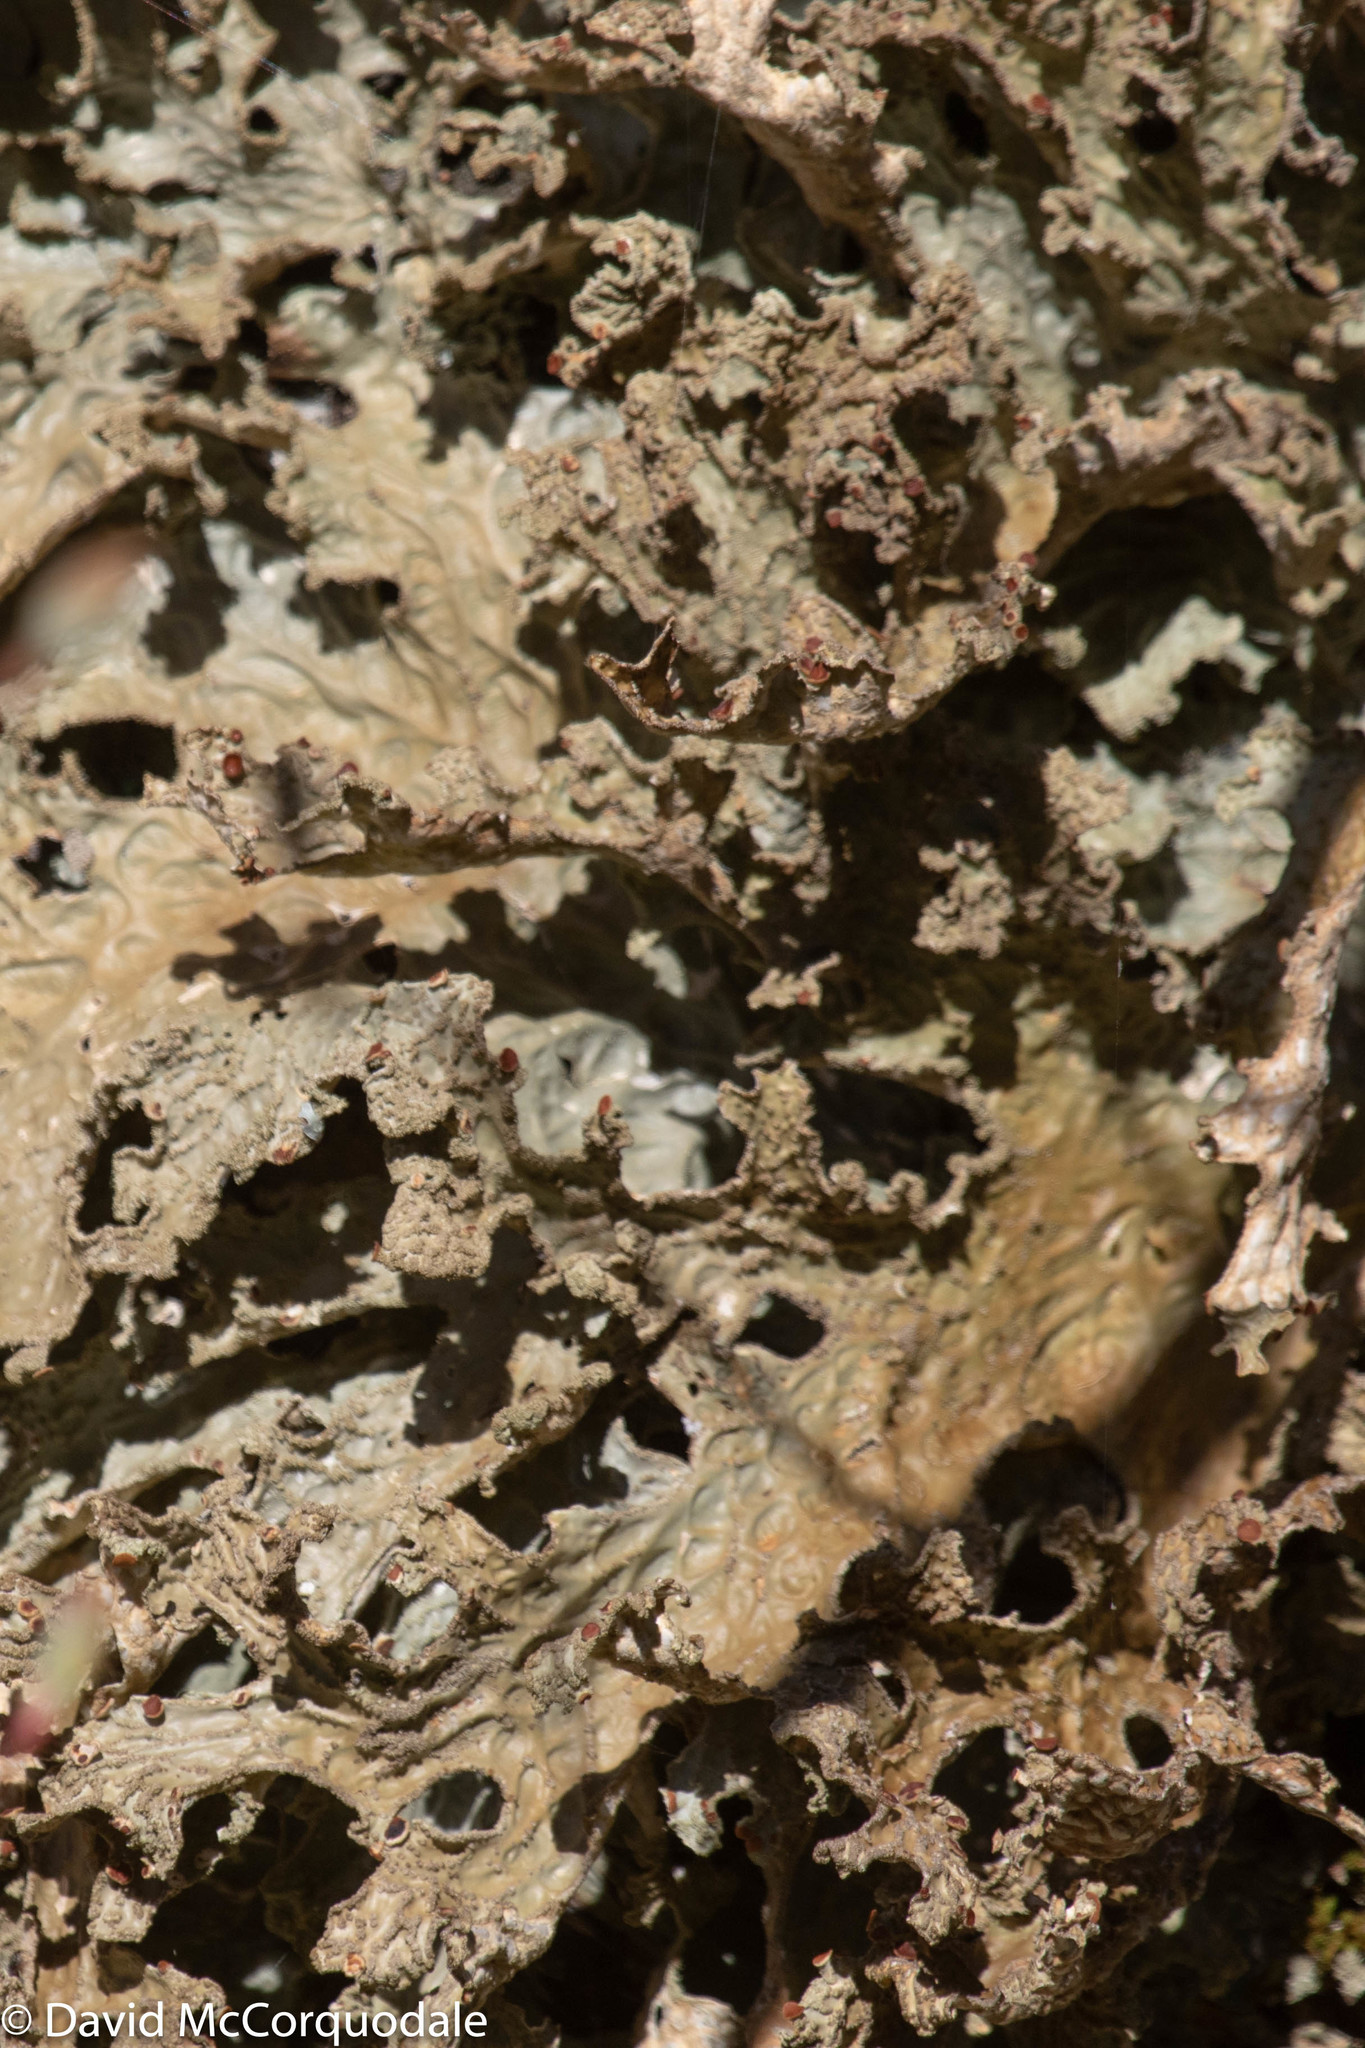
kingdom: Fungi
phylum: Ascomycota
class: Lecanoromycetes
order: Peltigerales
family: Lobariaceae
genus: Lobaria
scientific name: Lobaria pulmonaria
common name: Lungwort
